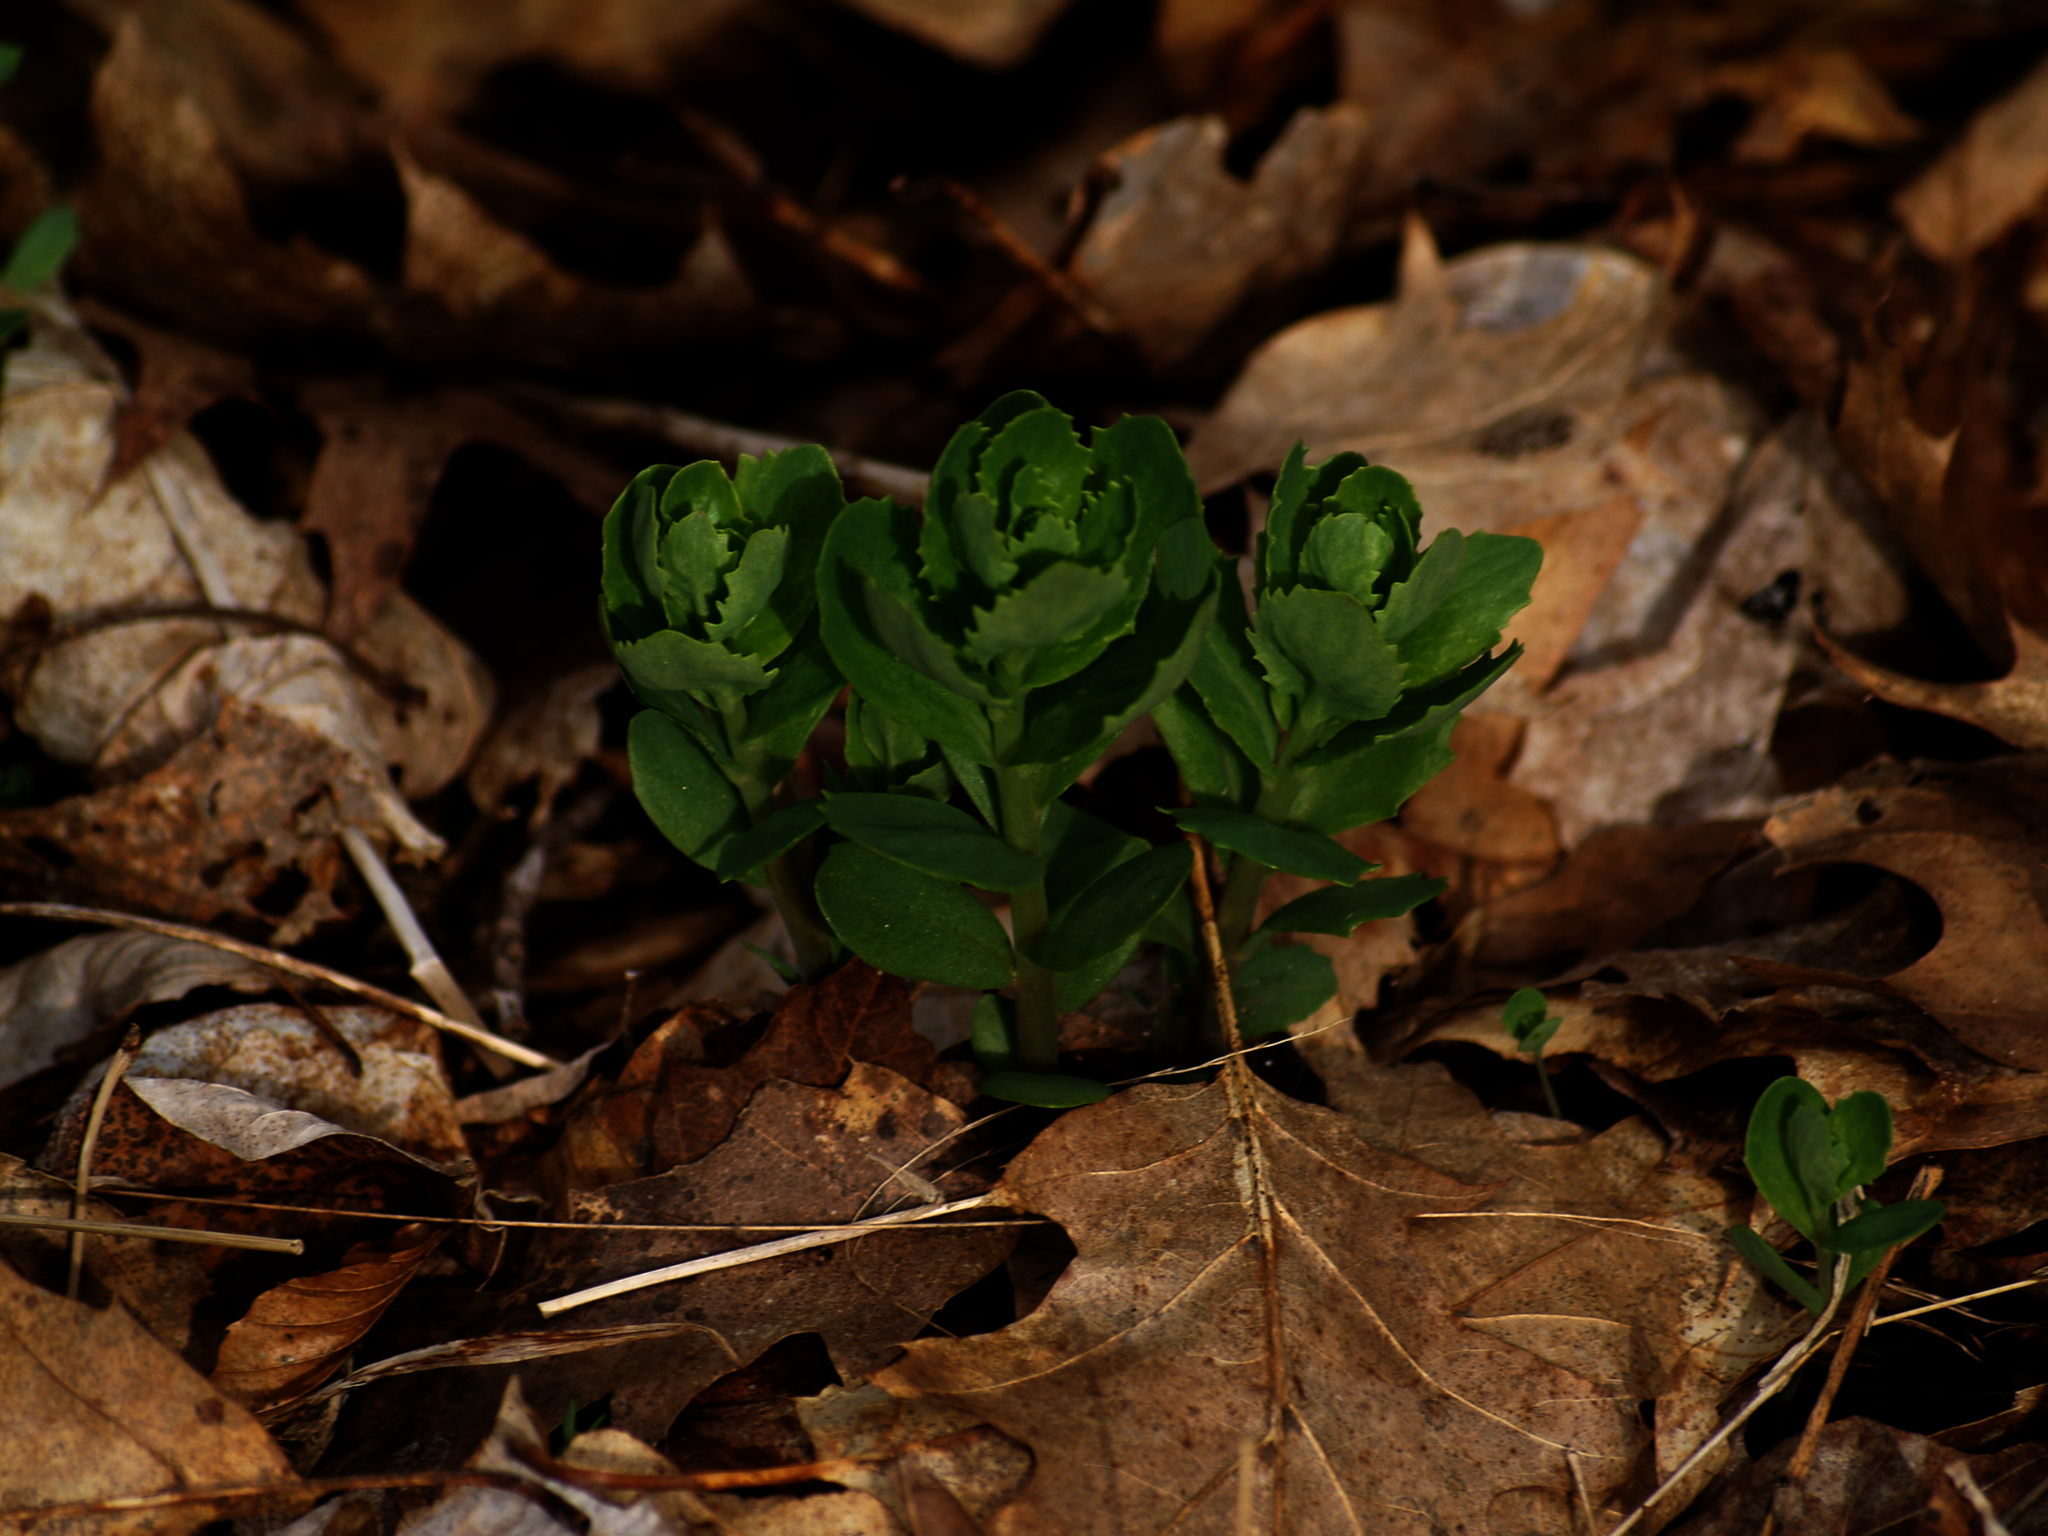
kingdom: Plantae
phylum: Tracheophyta
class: Magnoliopsida
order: Saxifragales
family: Crassulaceae
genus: Hylotelephium
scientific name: Hylotelephium telephium
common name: Live-forever
